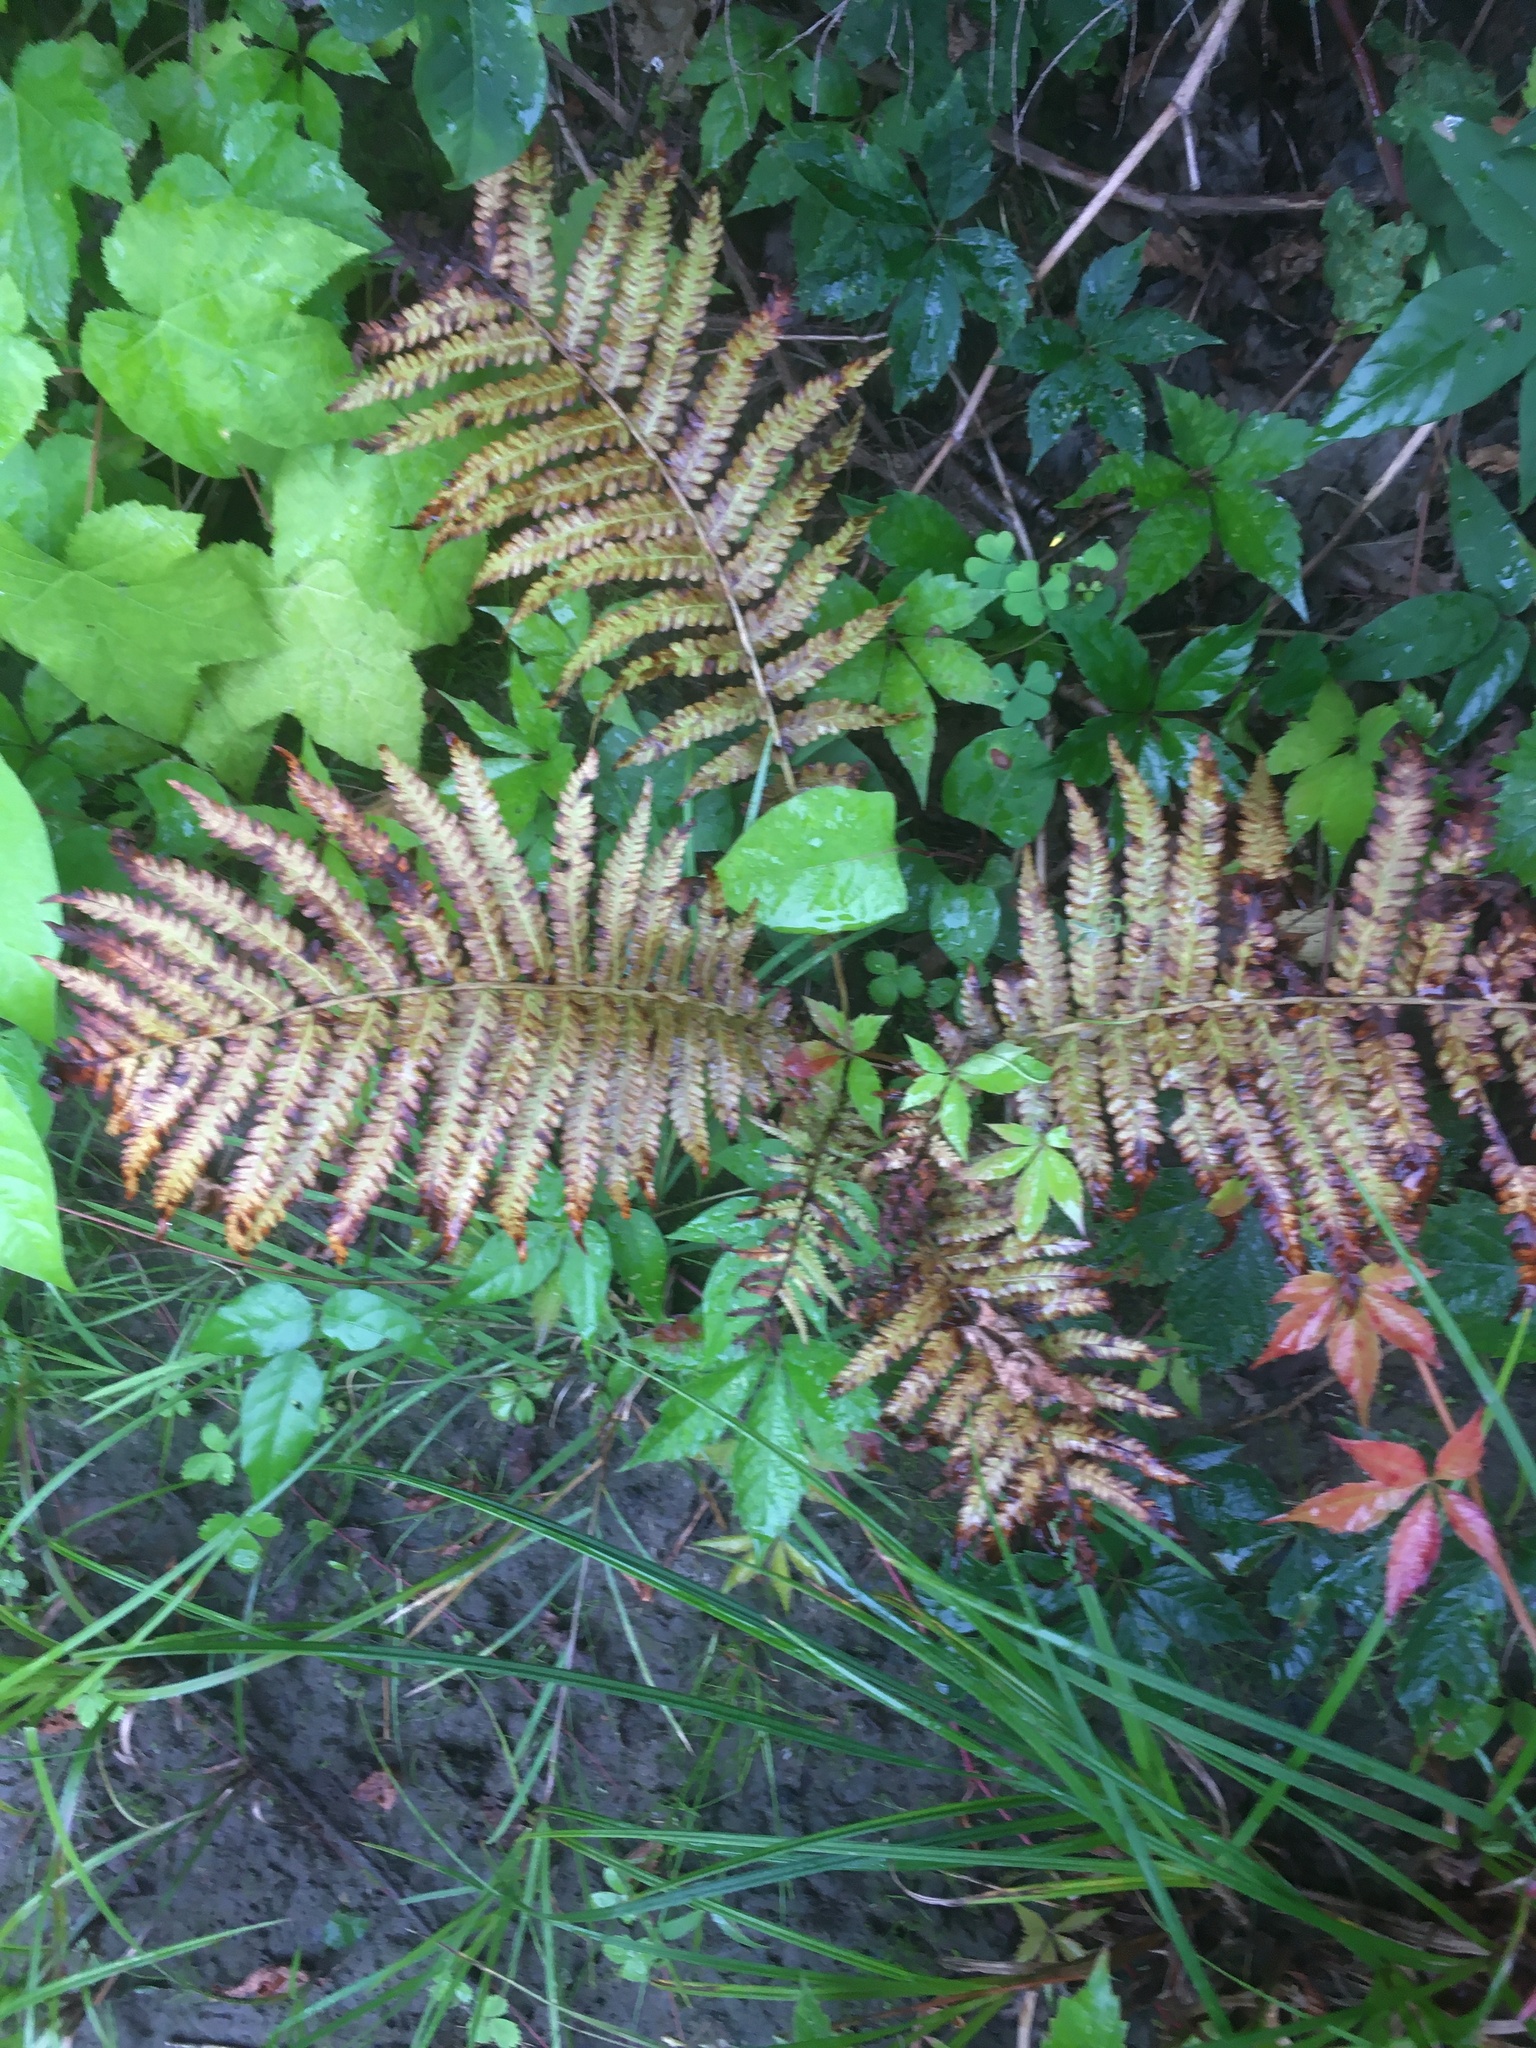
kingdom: Plantae
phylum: Tracheophyta
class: Polypodiopsida
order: Polypodiales
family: Onocleaceae
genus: Matteuccia
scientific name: Matteuccia struthiopteris
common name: Ostrich fern
